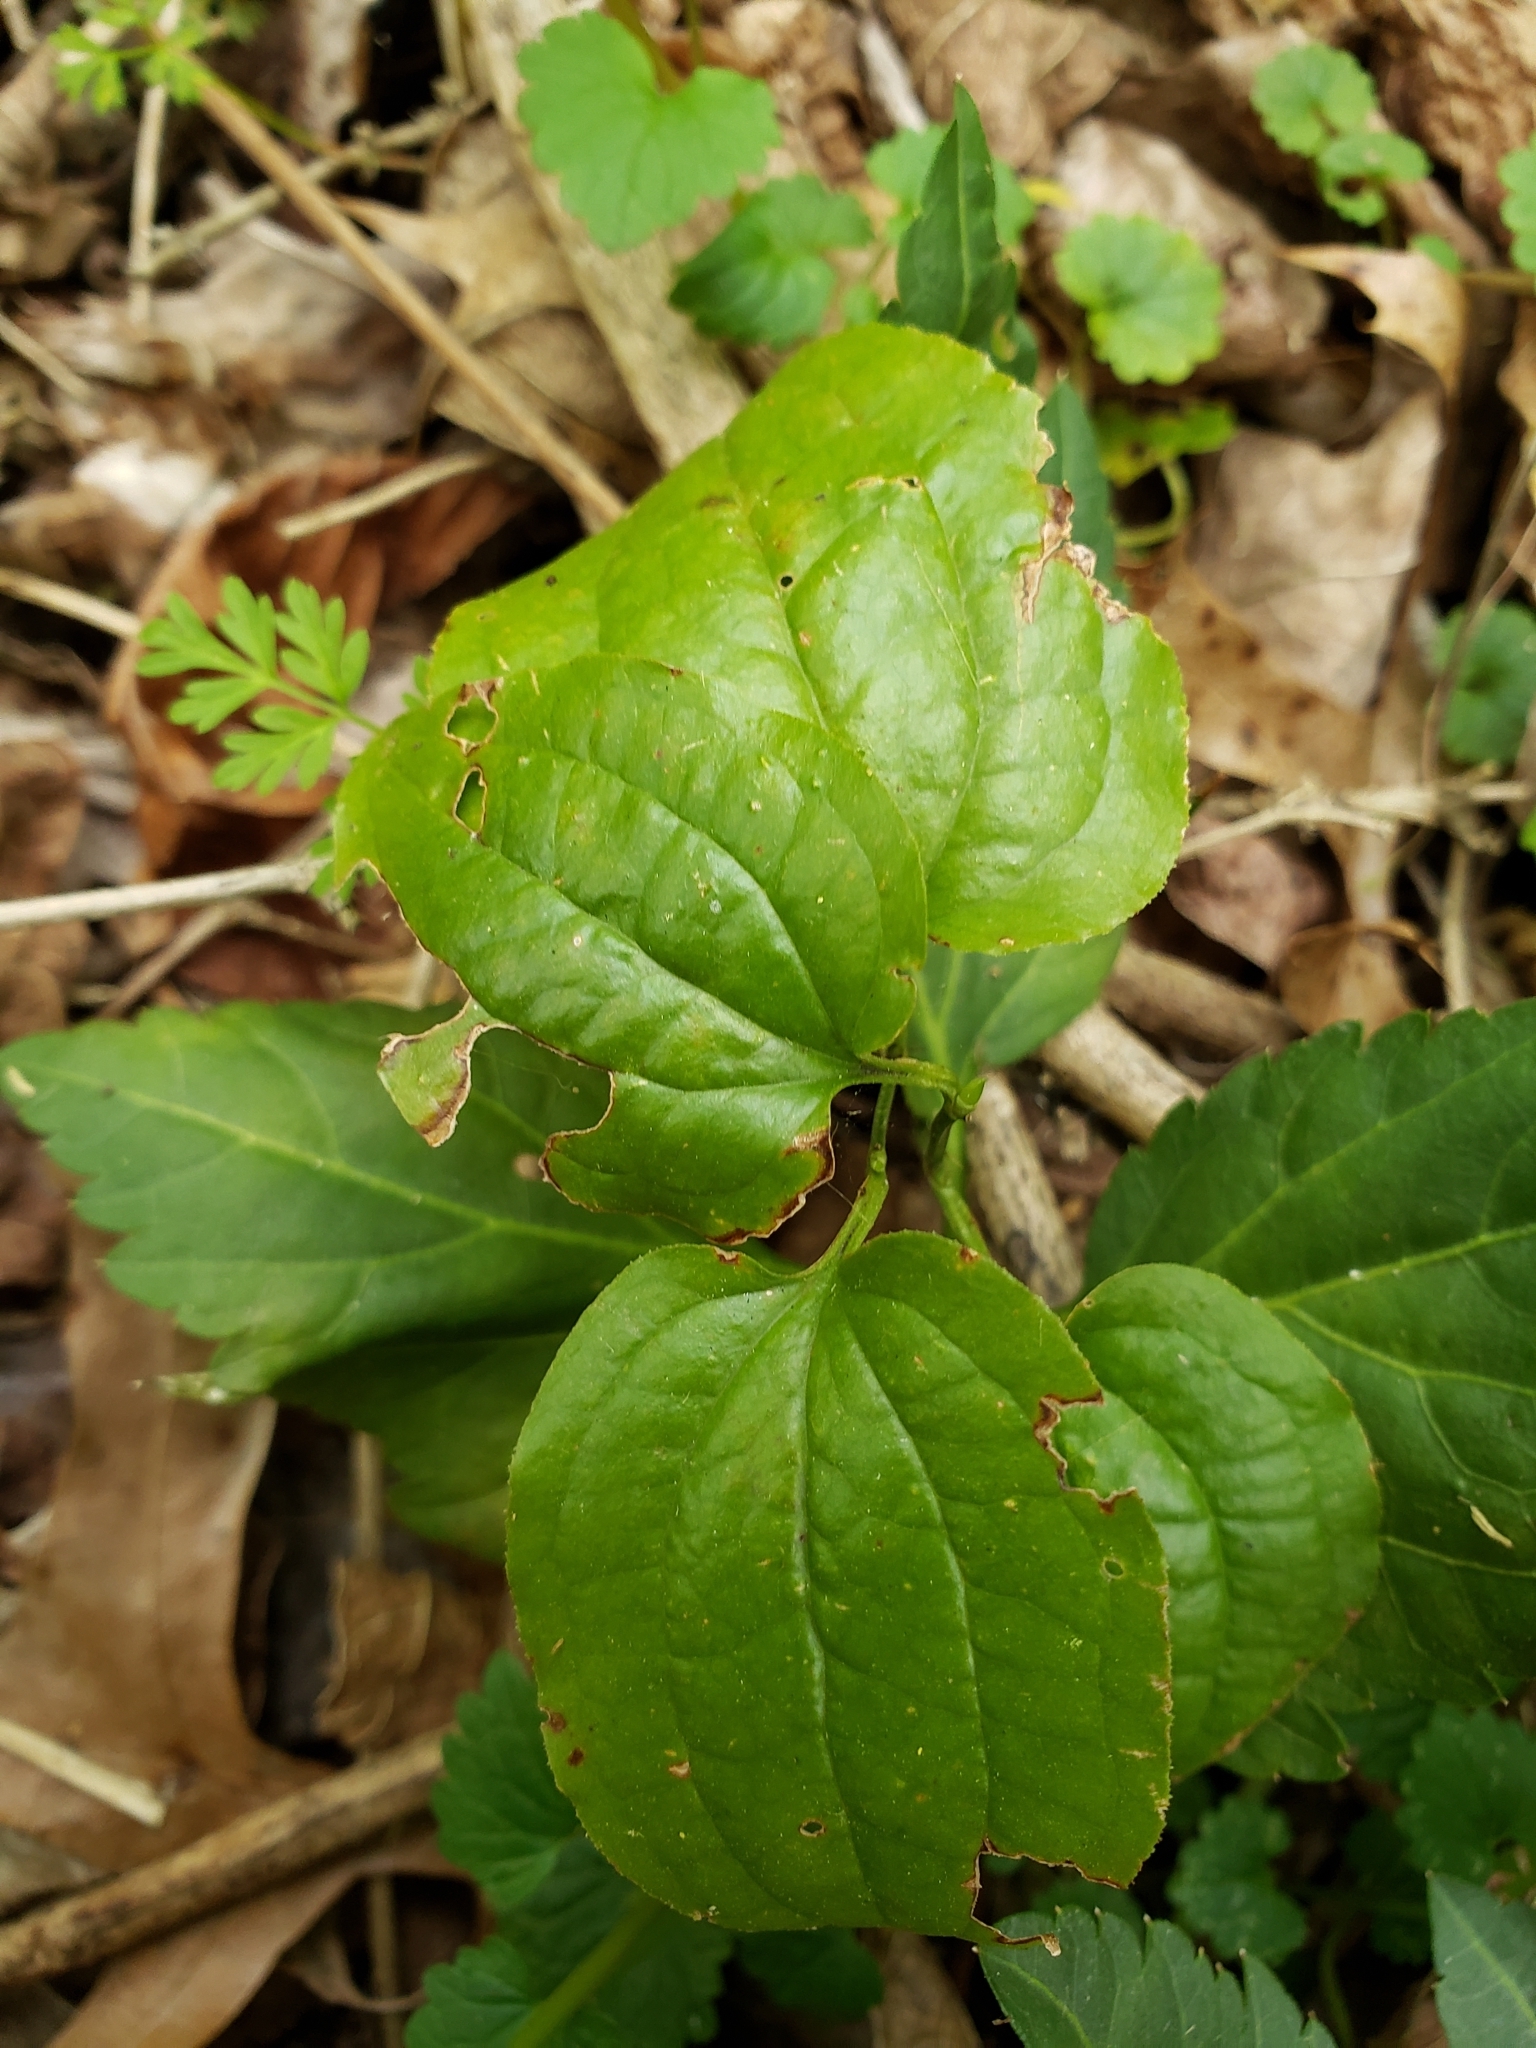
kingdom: Plantae
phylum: Tracheophyta
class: Liliopsida
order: Liliales
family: Smilacaceae
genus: Smilax
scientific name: Smilax rotundifolia
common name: Bullbriar
